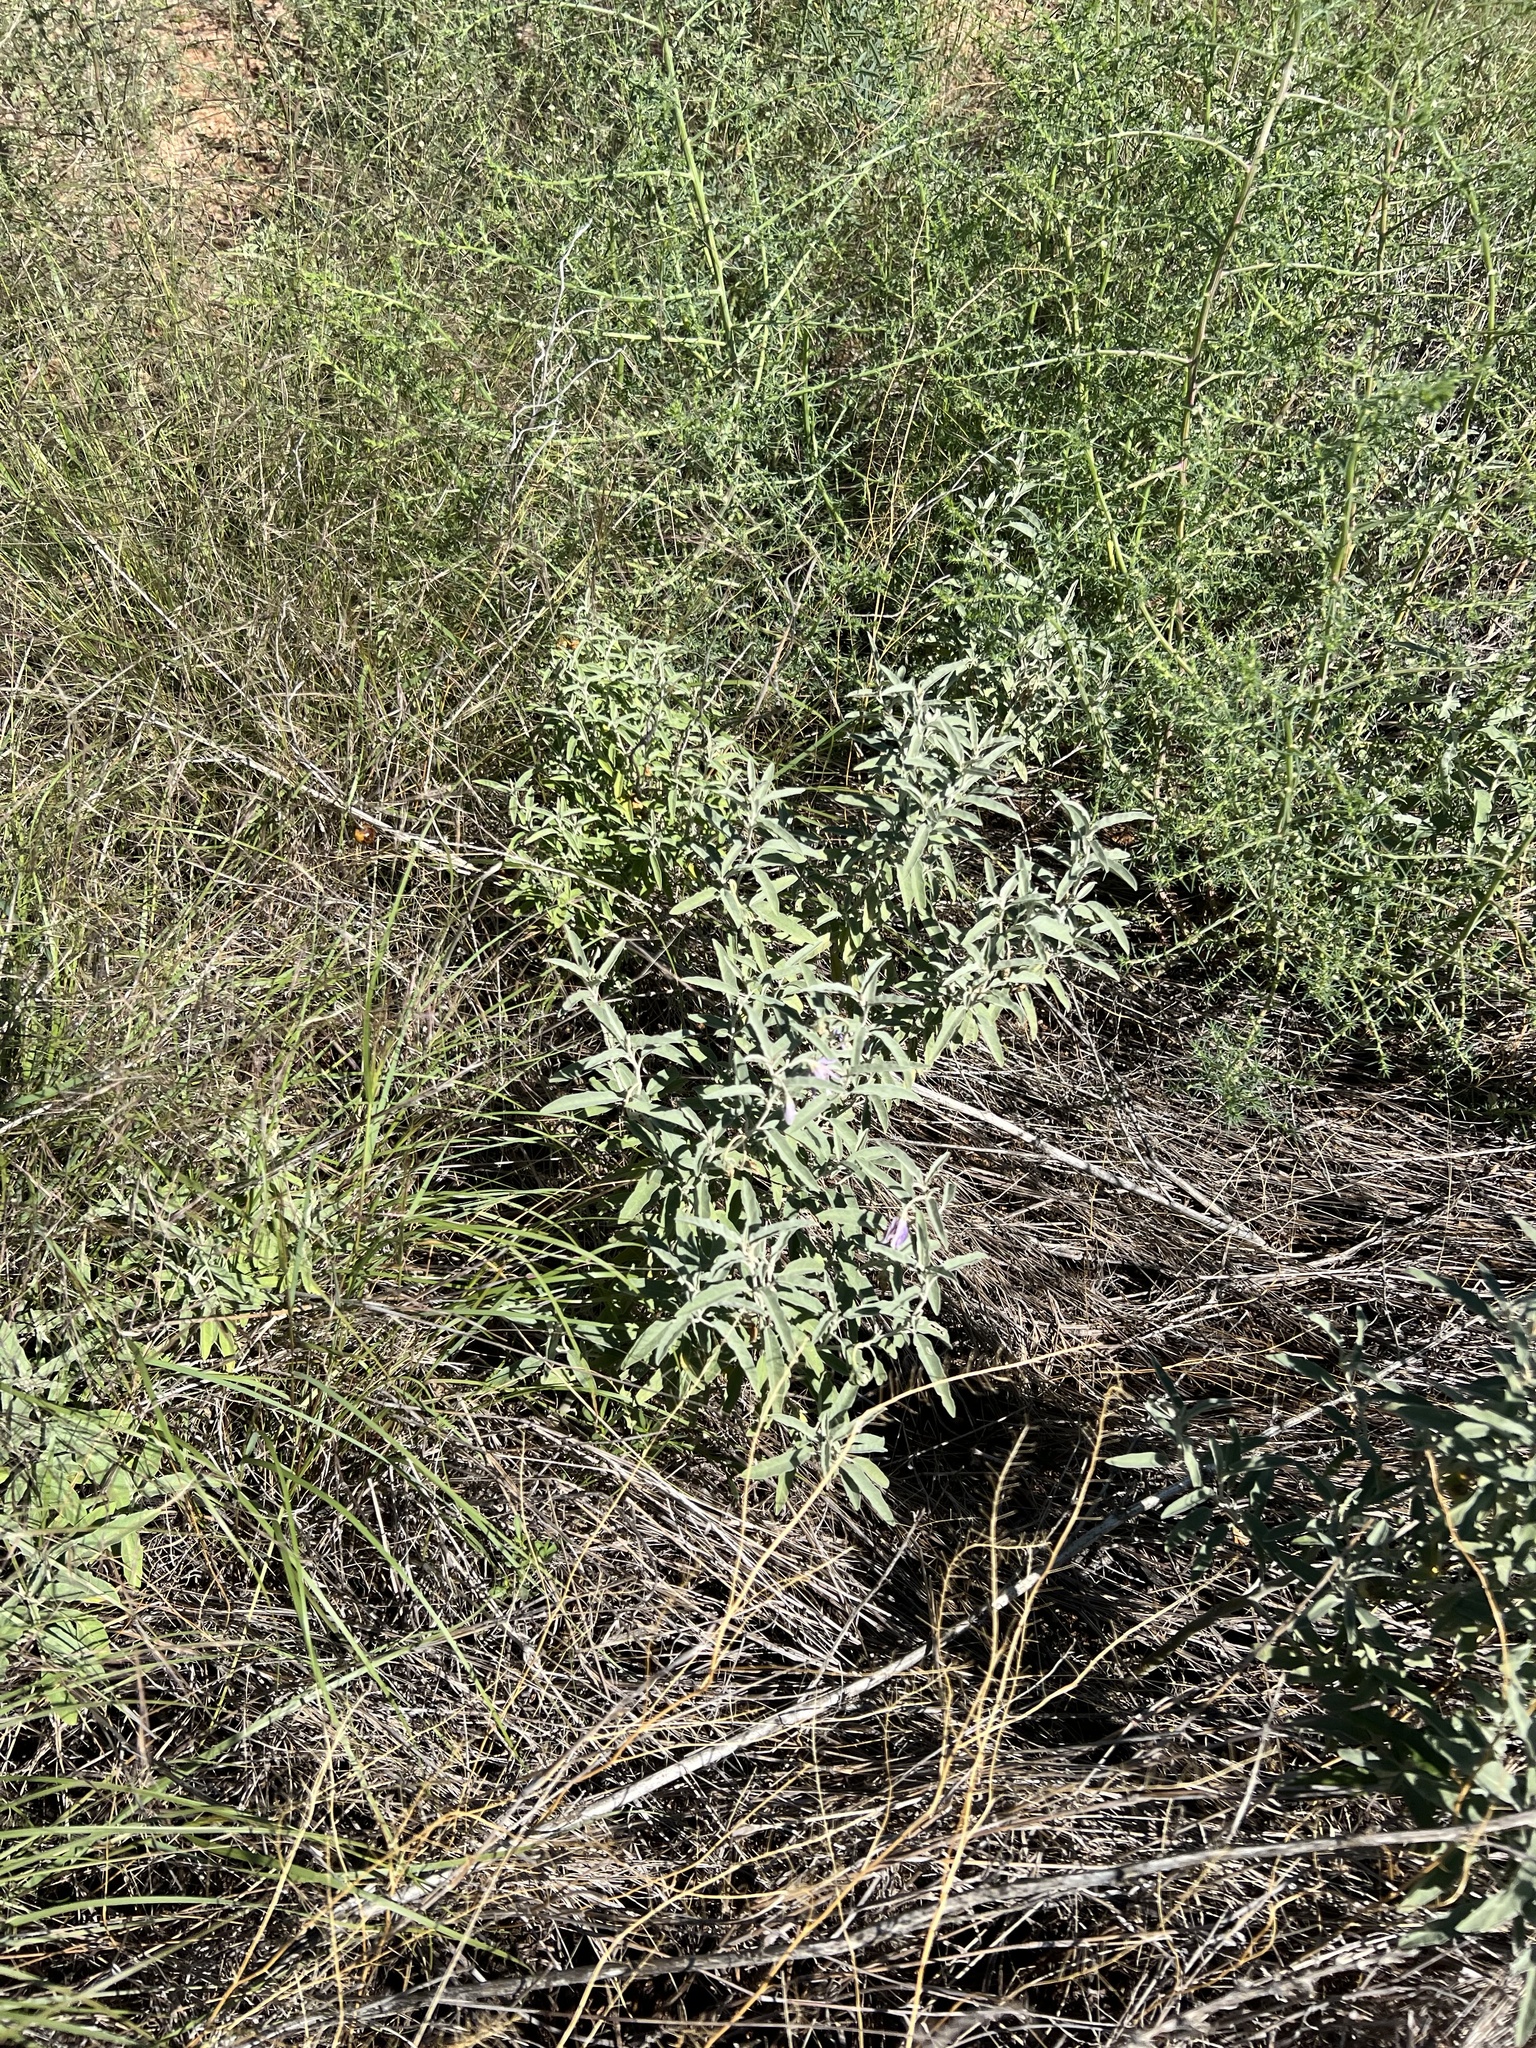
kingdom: Plantae
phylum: Tracheophyta
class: Magnoliopsida
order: Solanales
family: Solanaceae
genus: Solanum
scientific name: Solanum elaeagnifolium
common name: Silverleaf nightshade
